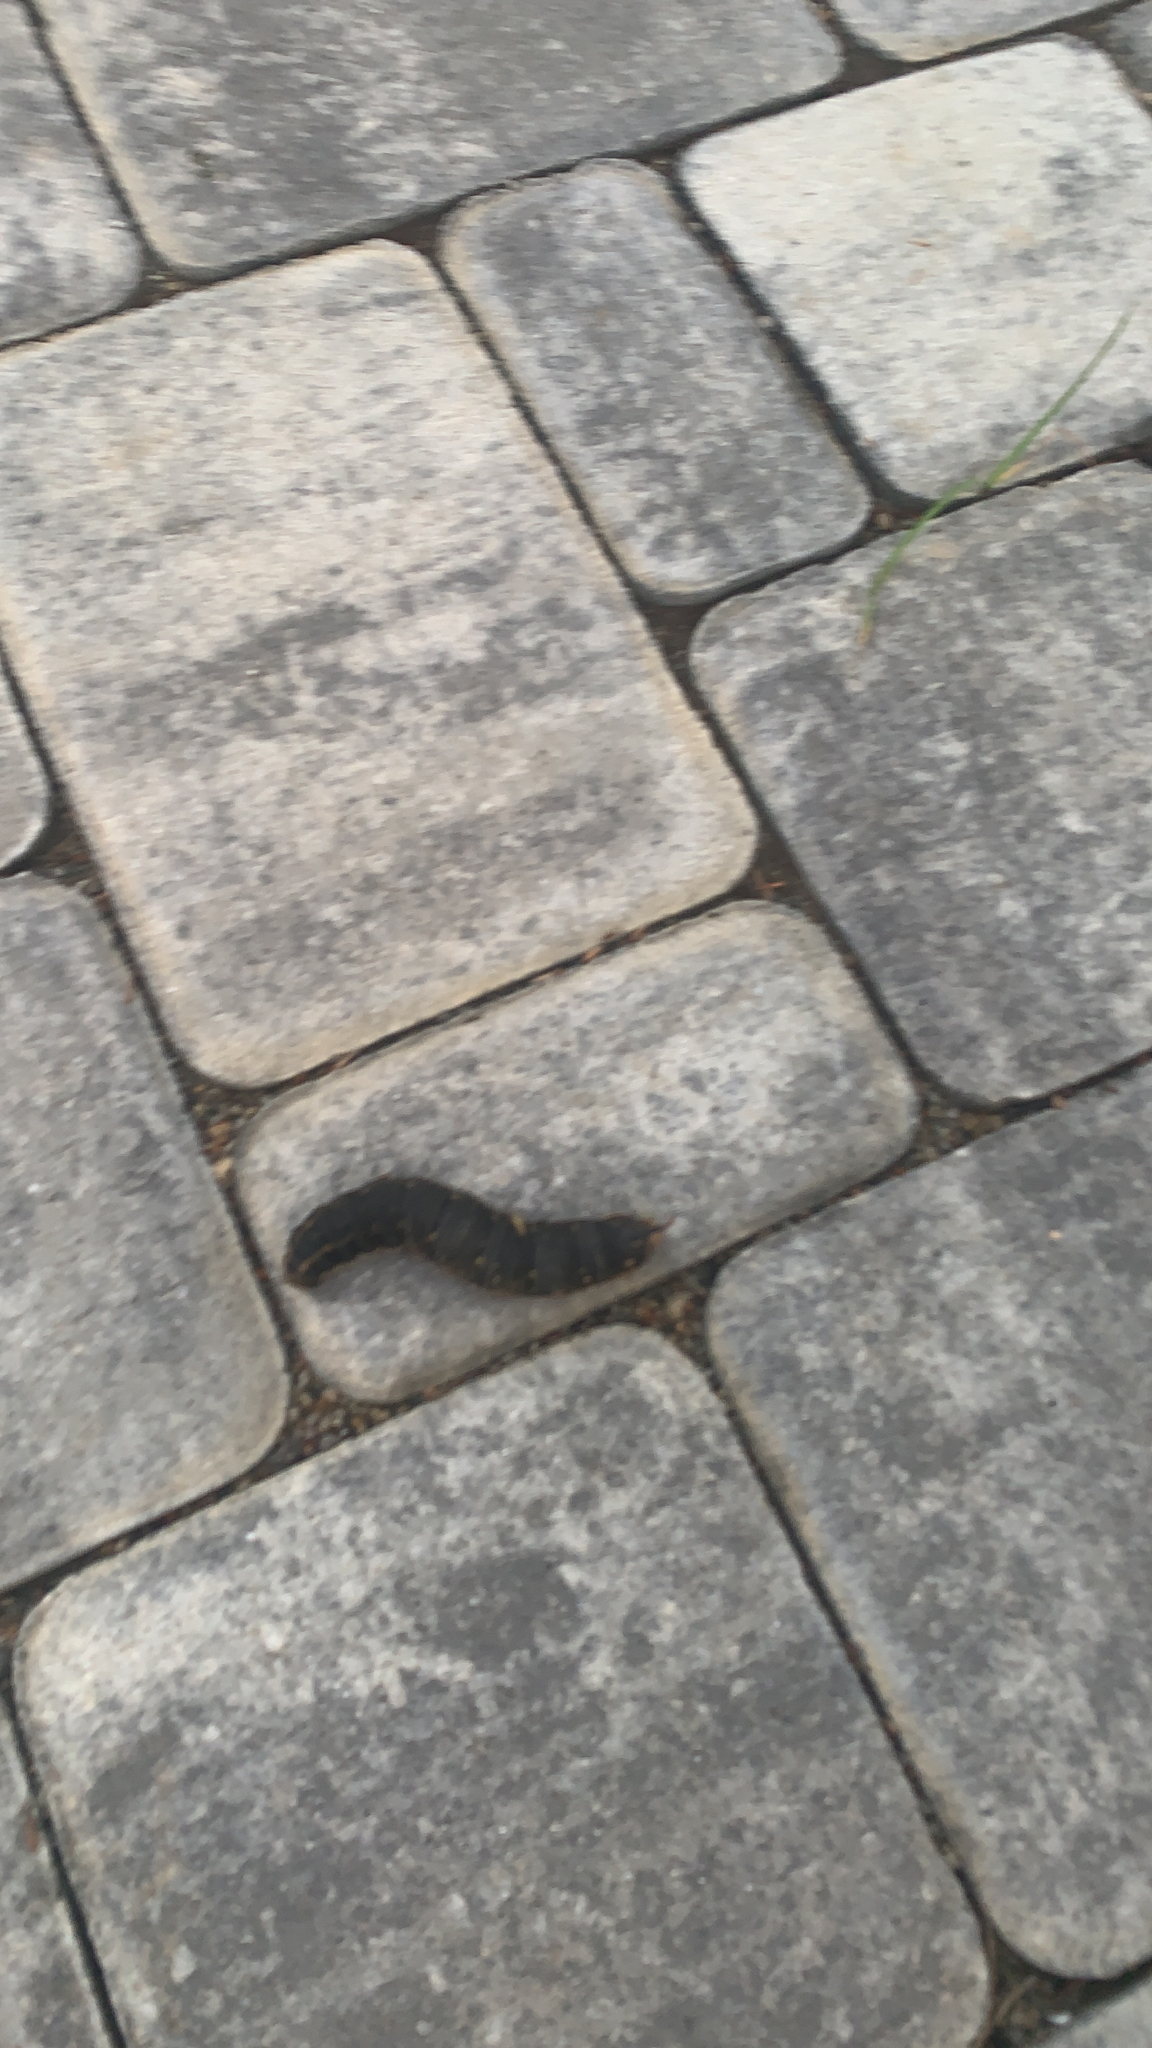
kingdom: Animalia
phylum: Arthropoda
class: Insecta
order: Lepidoptera
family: Sphingidae
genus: Agrius
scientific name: Agrius convolvuli
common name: Convolvulus hawkmoth
